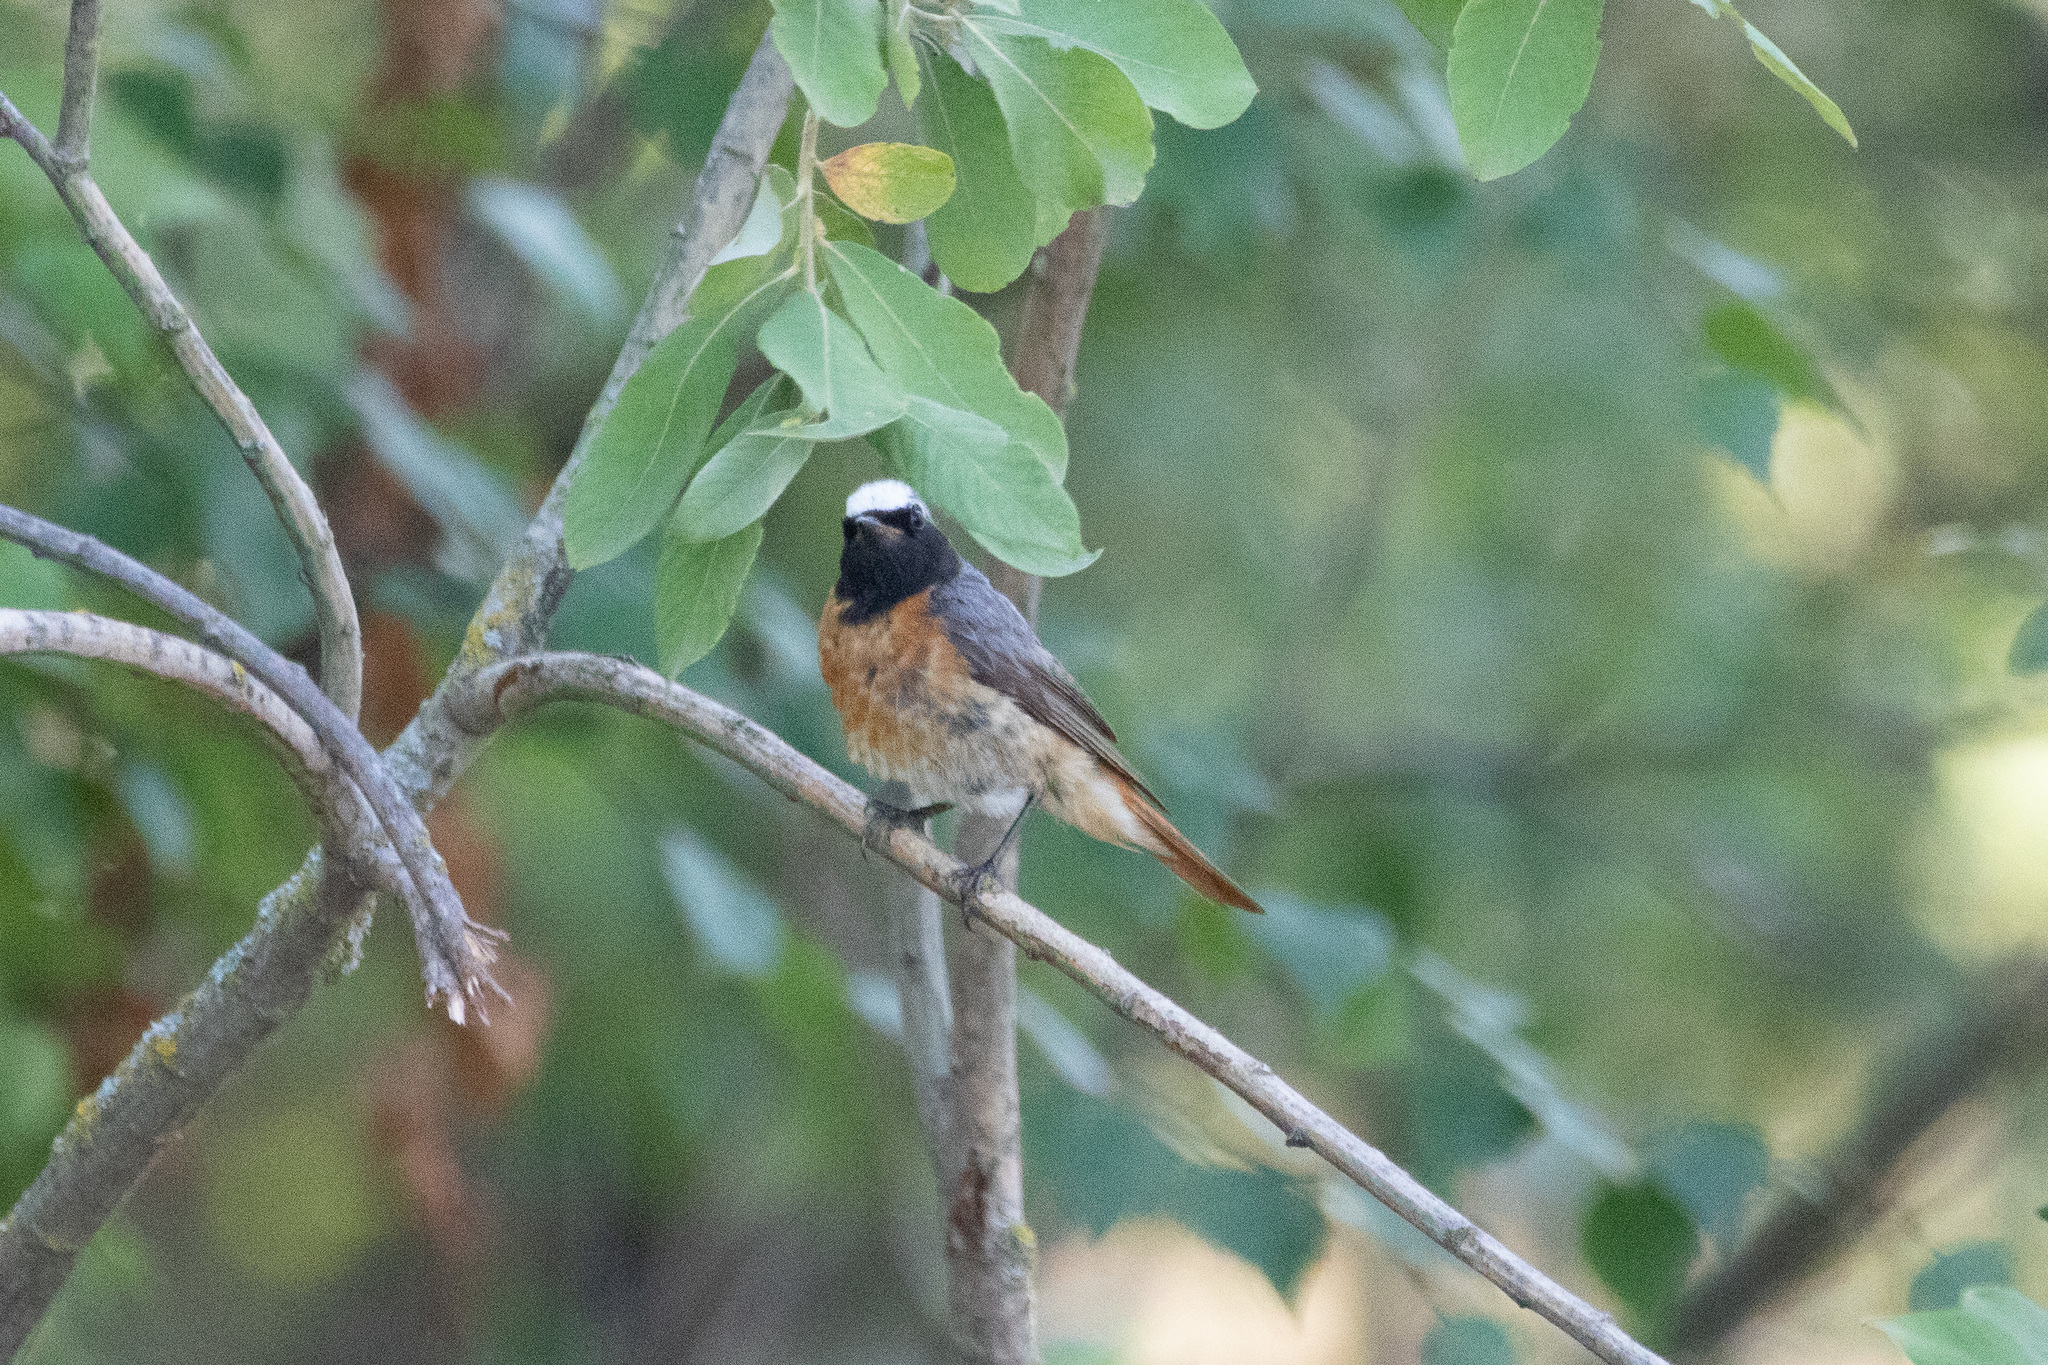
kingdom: Animalia
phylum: Chordata
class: Aves
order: Passeriformes
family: Muscicapidae
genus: Phoenicurus
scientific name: Phoenicurus phoenicurus
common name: Common redstart
